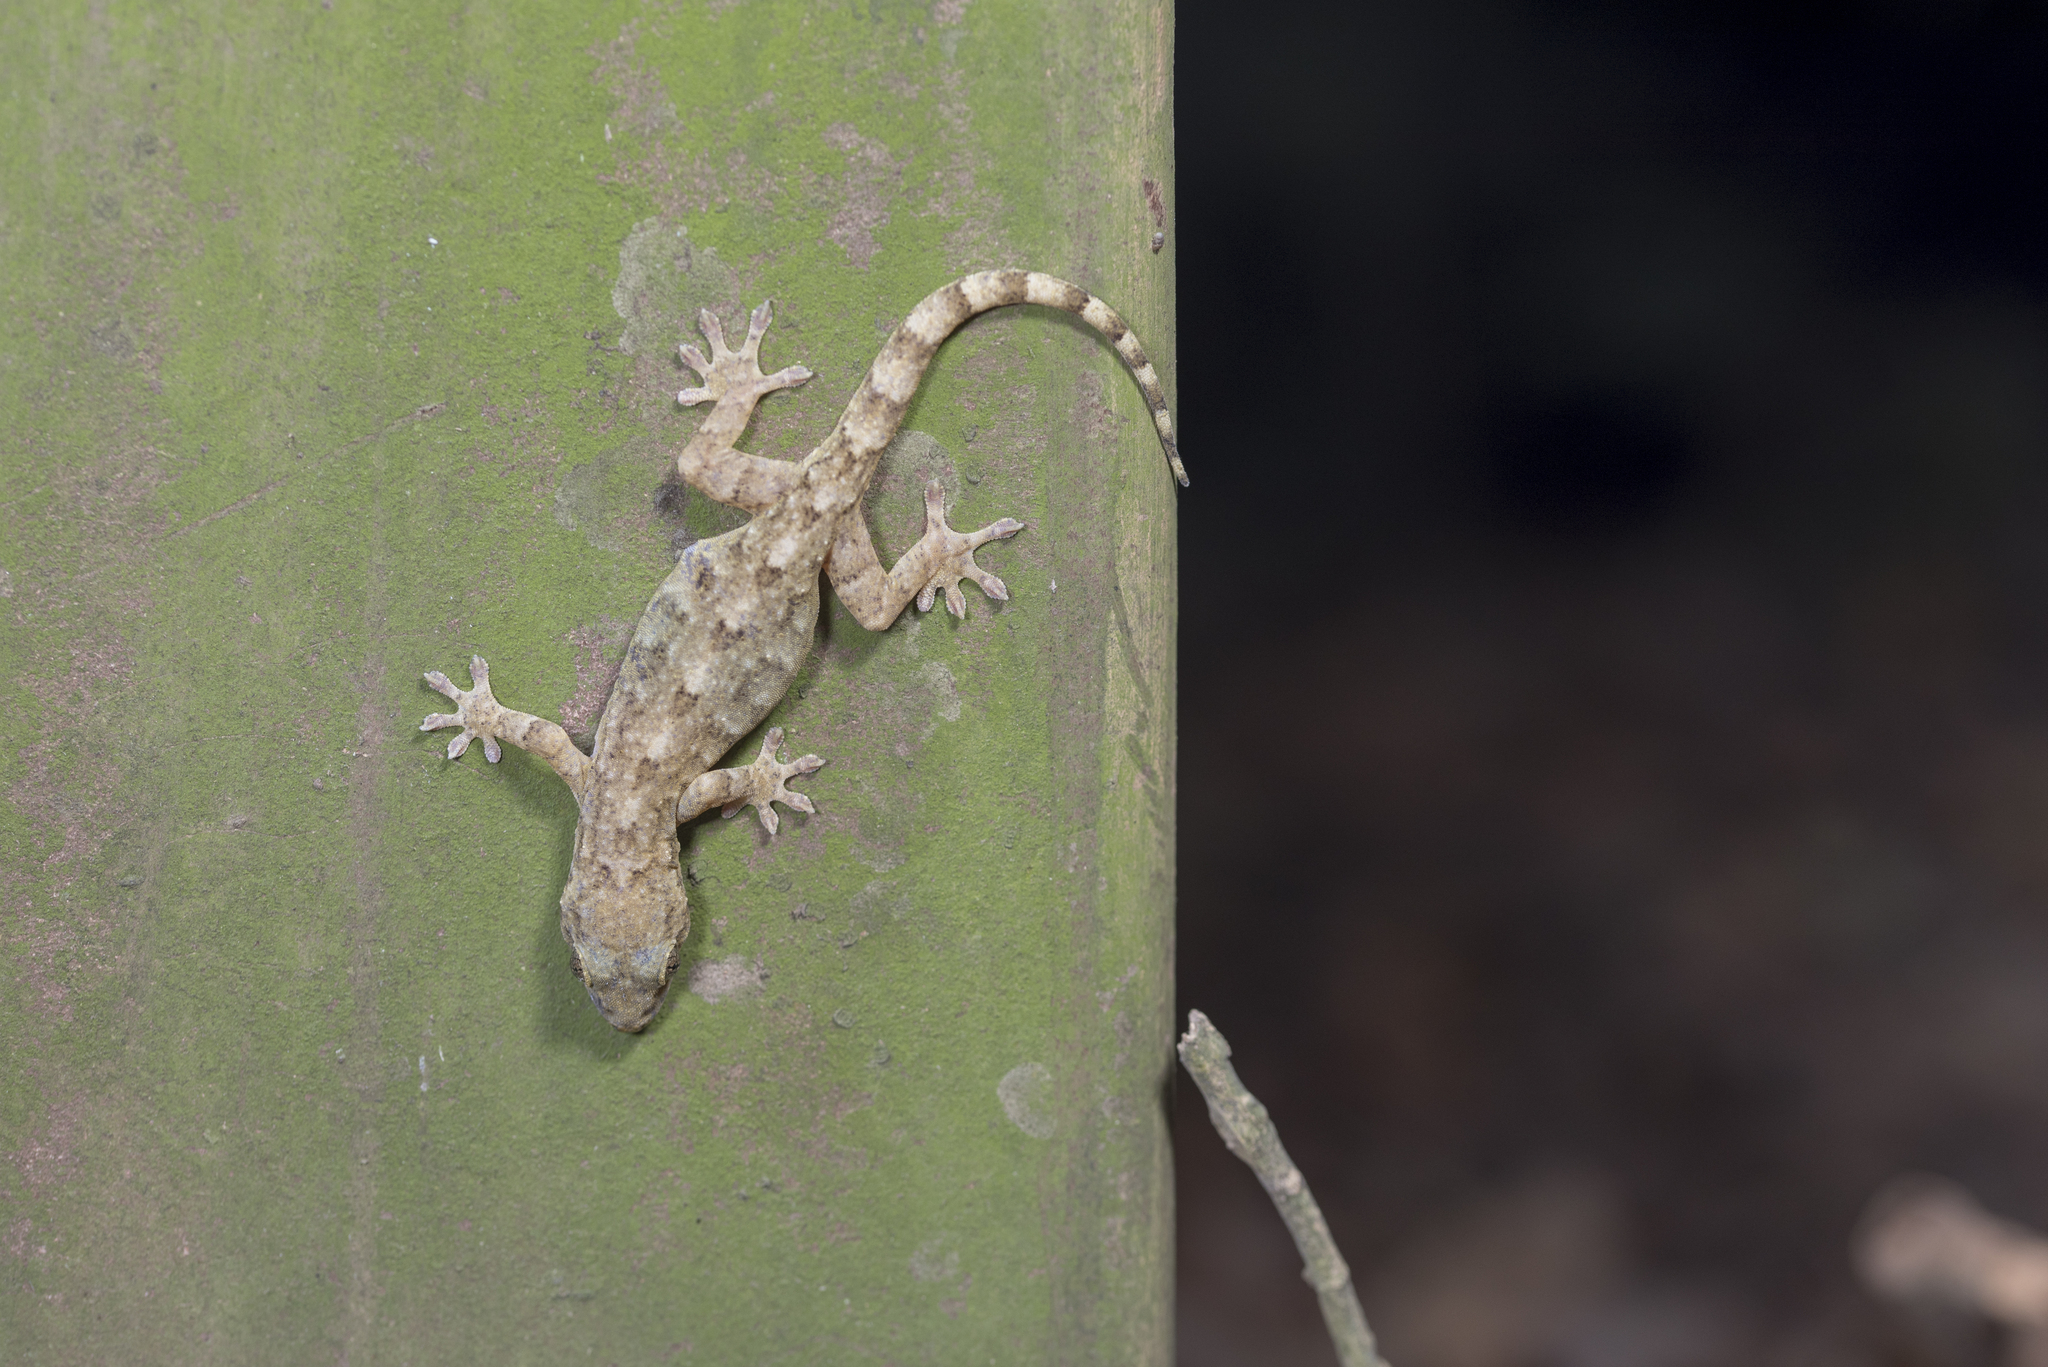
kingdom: Animalia
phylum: Chordata
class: Squamata
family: Gekkonidae
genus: Gekko
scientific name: Gekko hokouensis
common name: Kwangsi gecko
